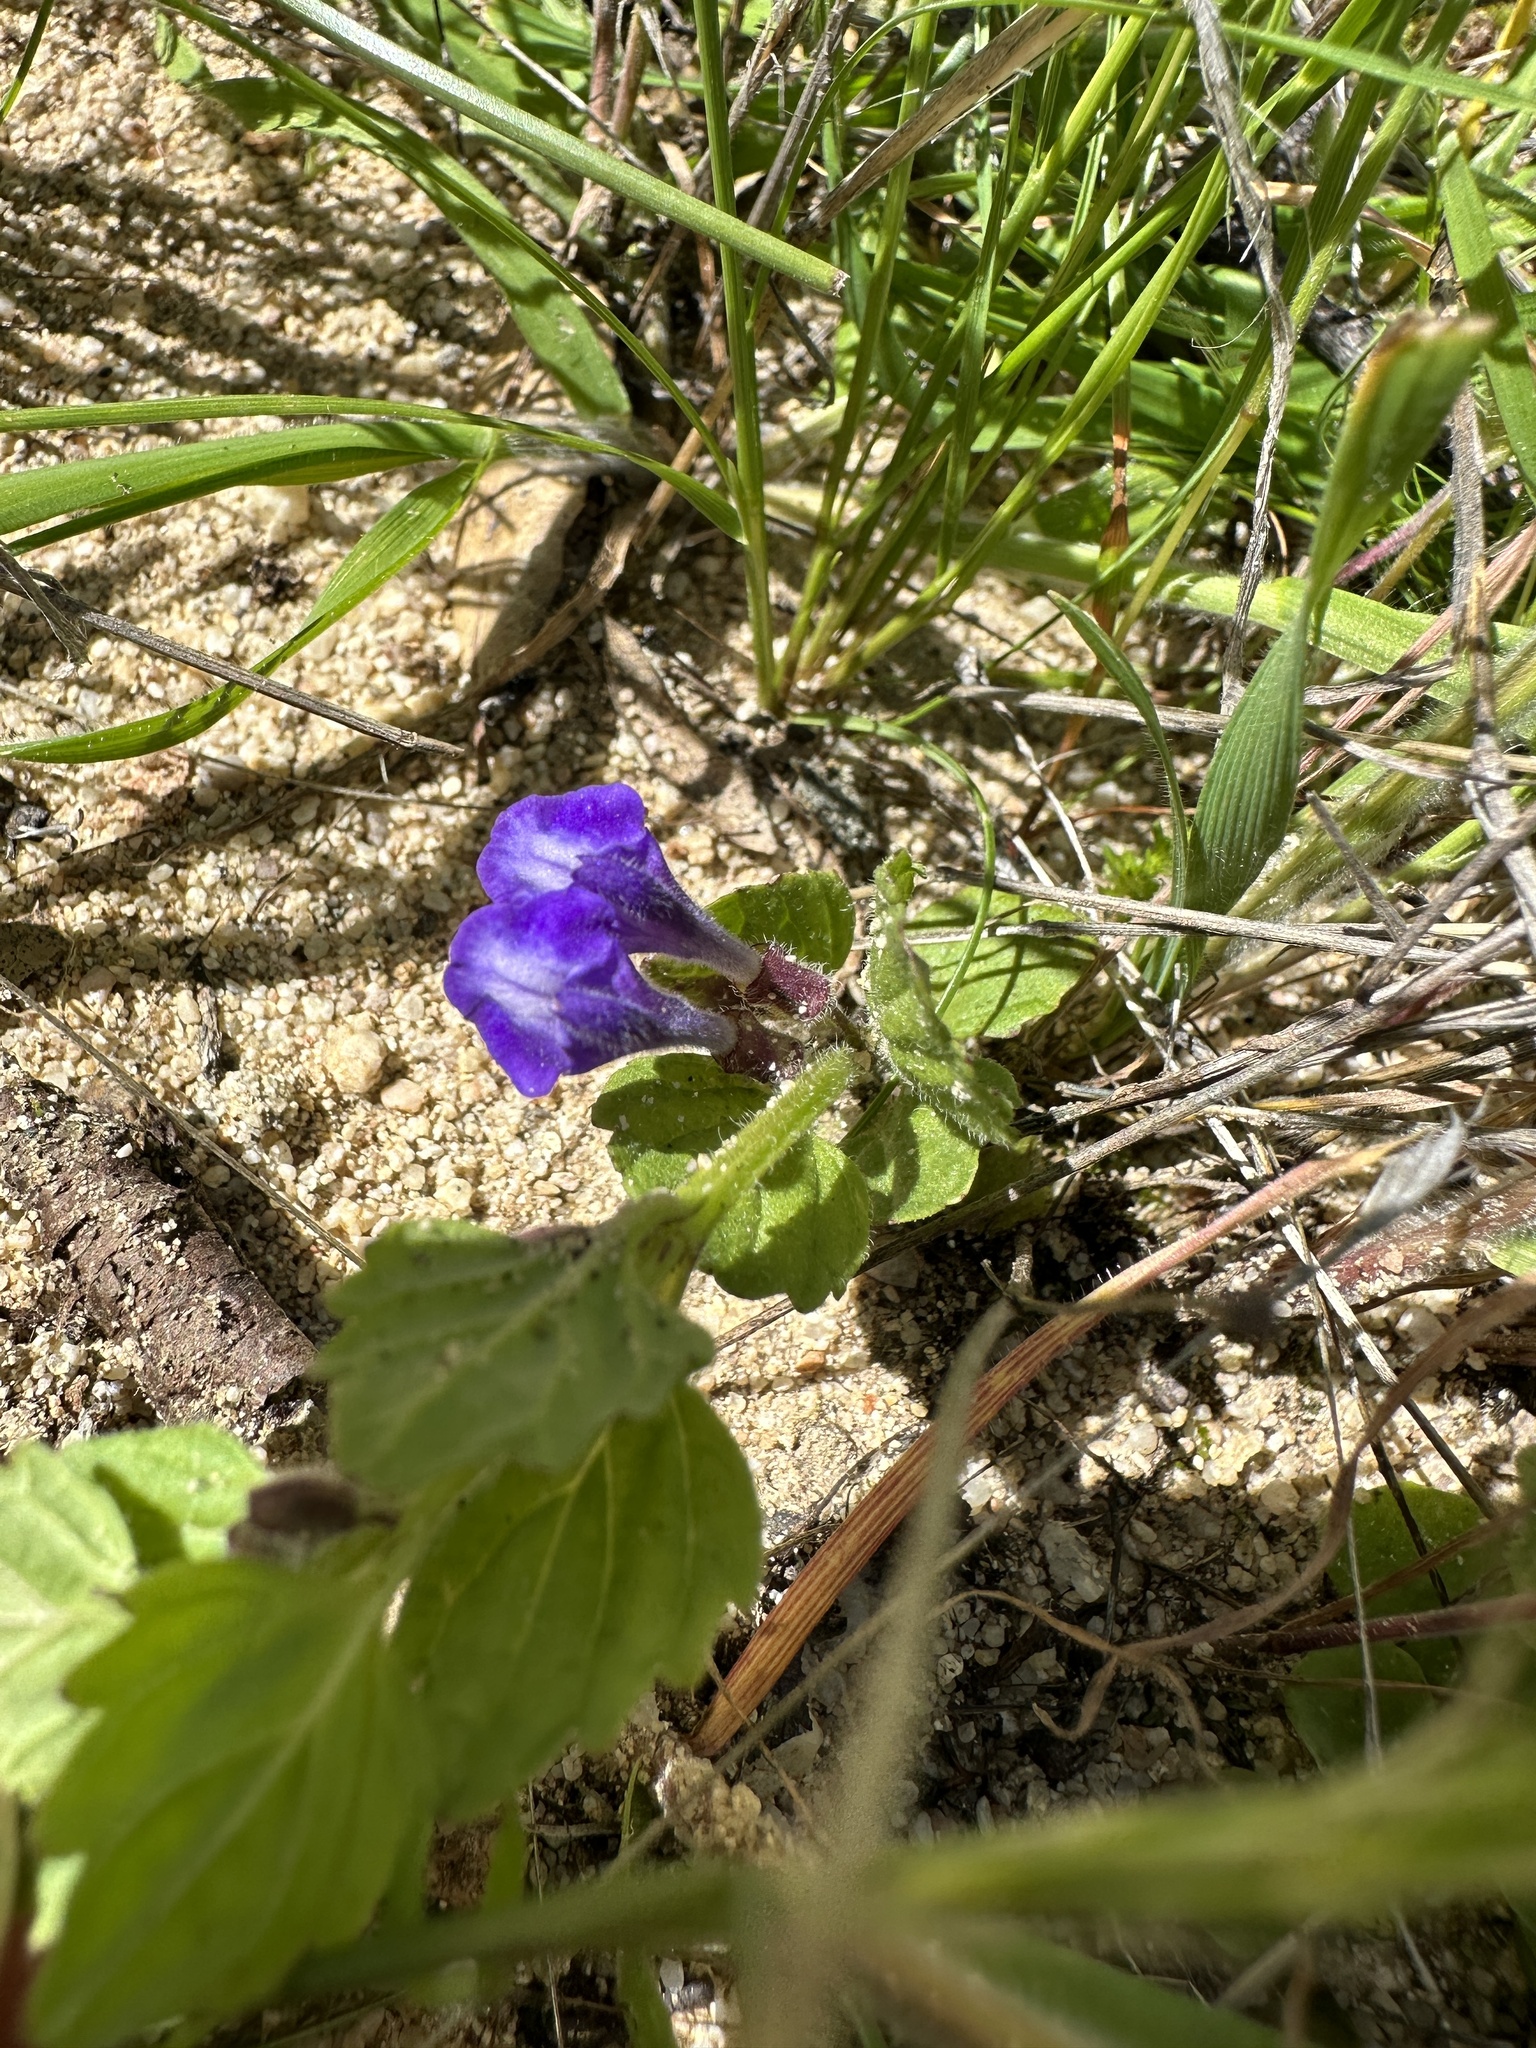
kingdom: Plantae
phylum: Tracheophyta
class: Magnoliopsida
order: Lamiales
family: Lamiaceae
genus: Scutellaria
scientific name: Scutellaria tuberosa
